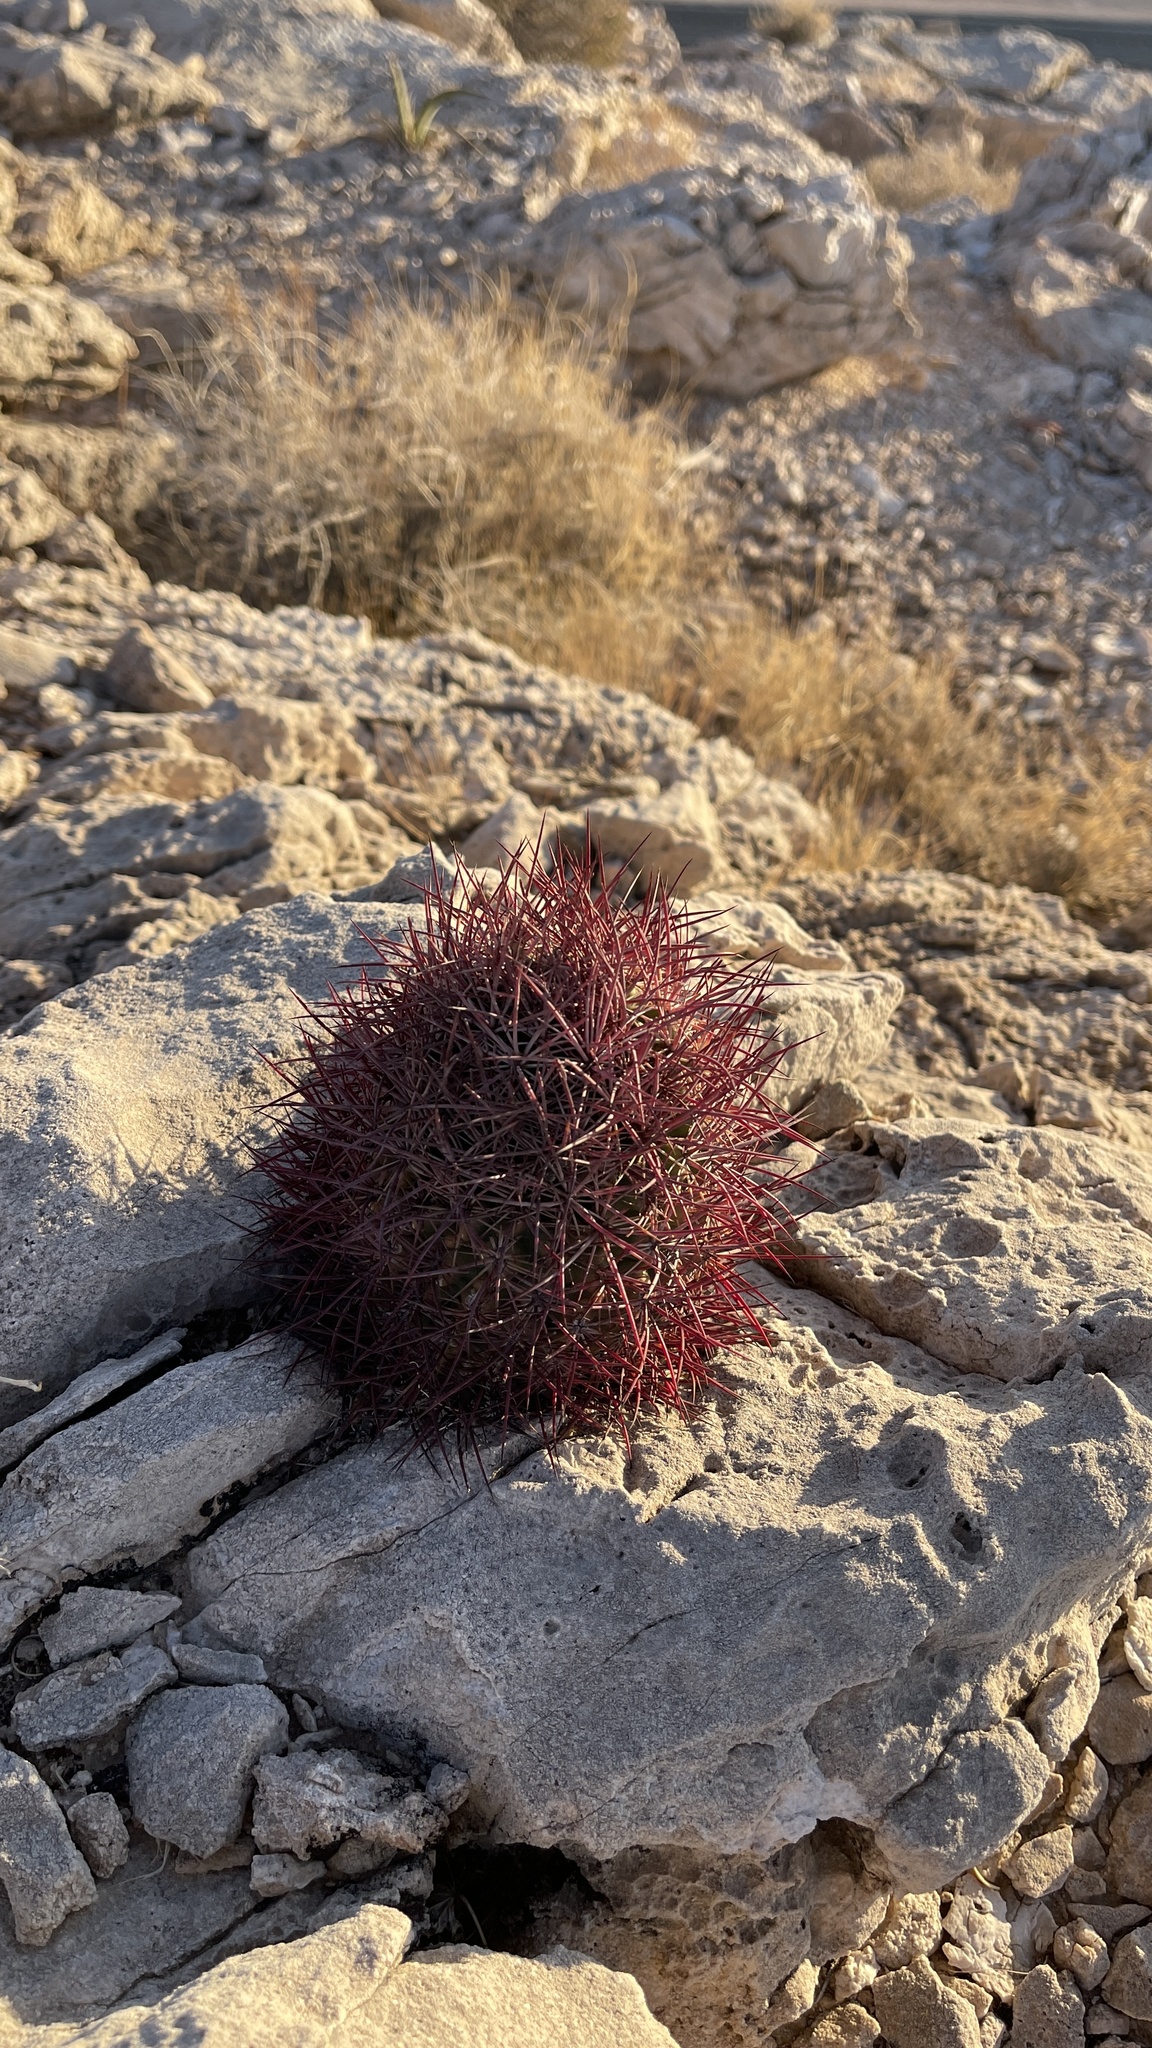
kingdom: Plantae
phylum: Tracheophyta
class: Magnoliopsida
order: Caryophyllales
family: Cactaceae
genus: Sclerocactus
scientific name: Sclerocactus johnsonii
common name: Eight-spine fishhook cactus
